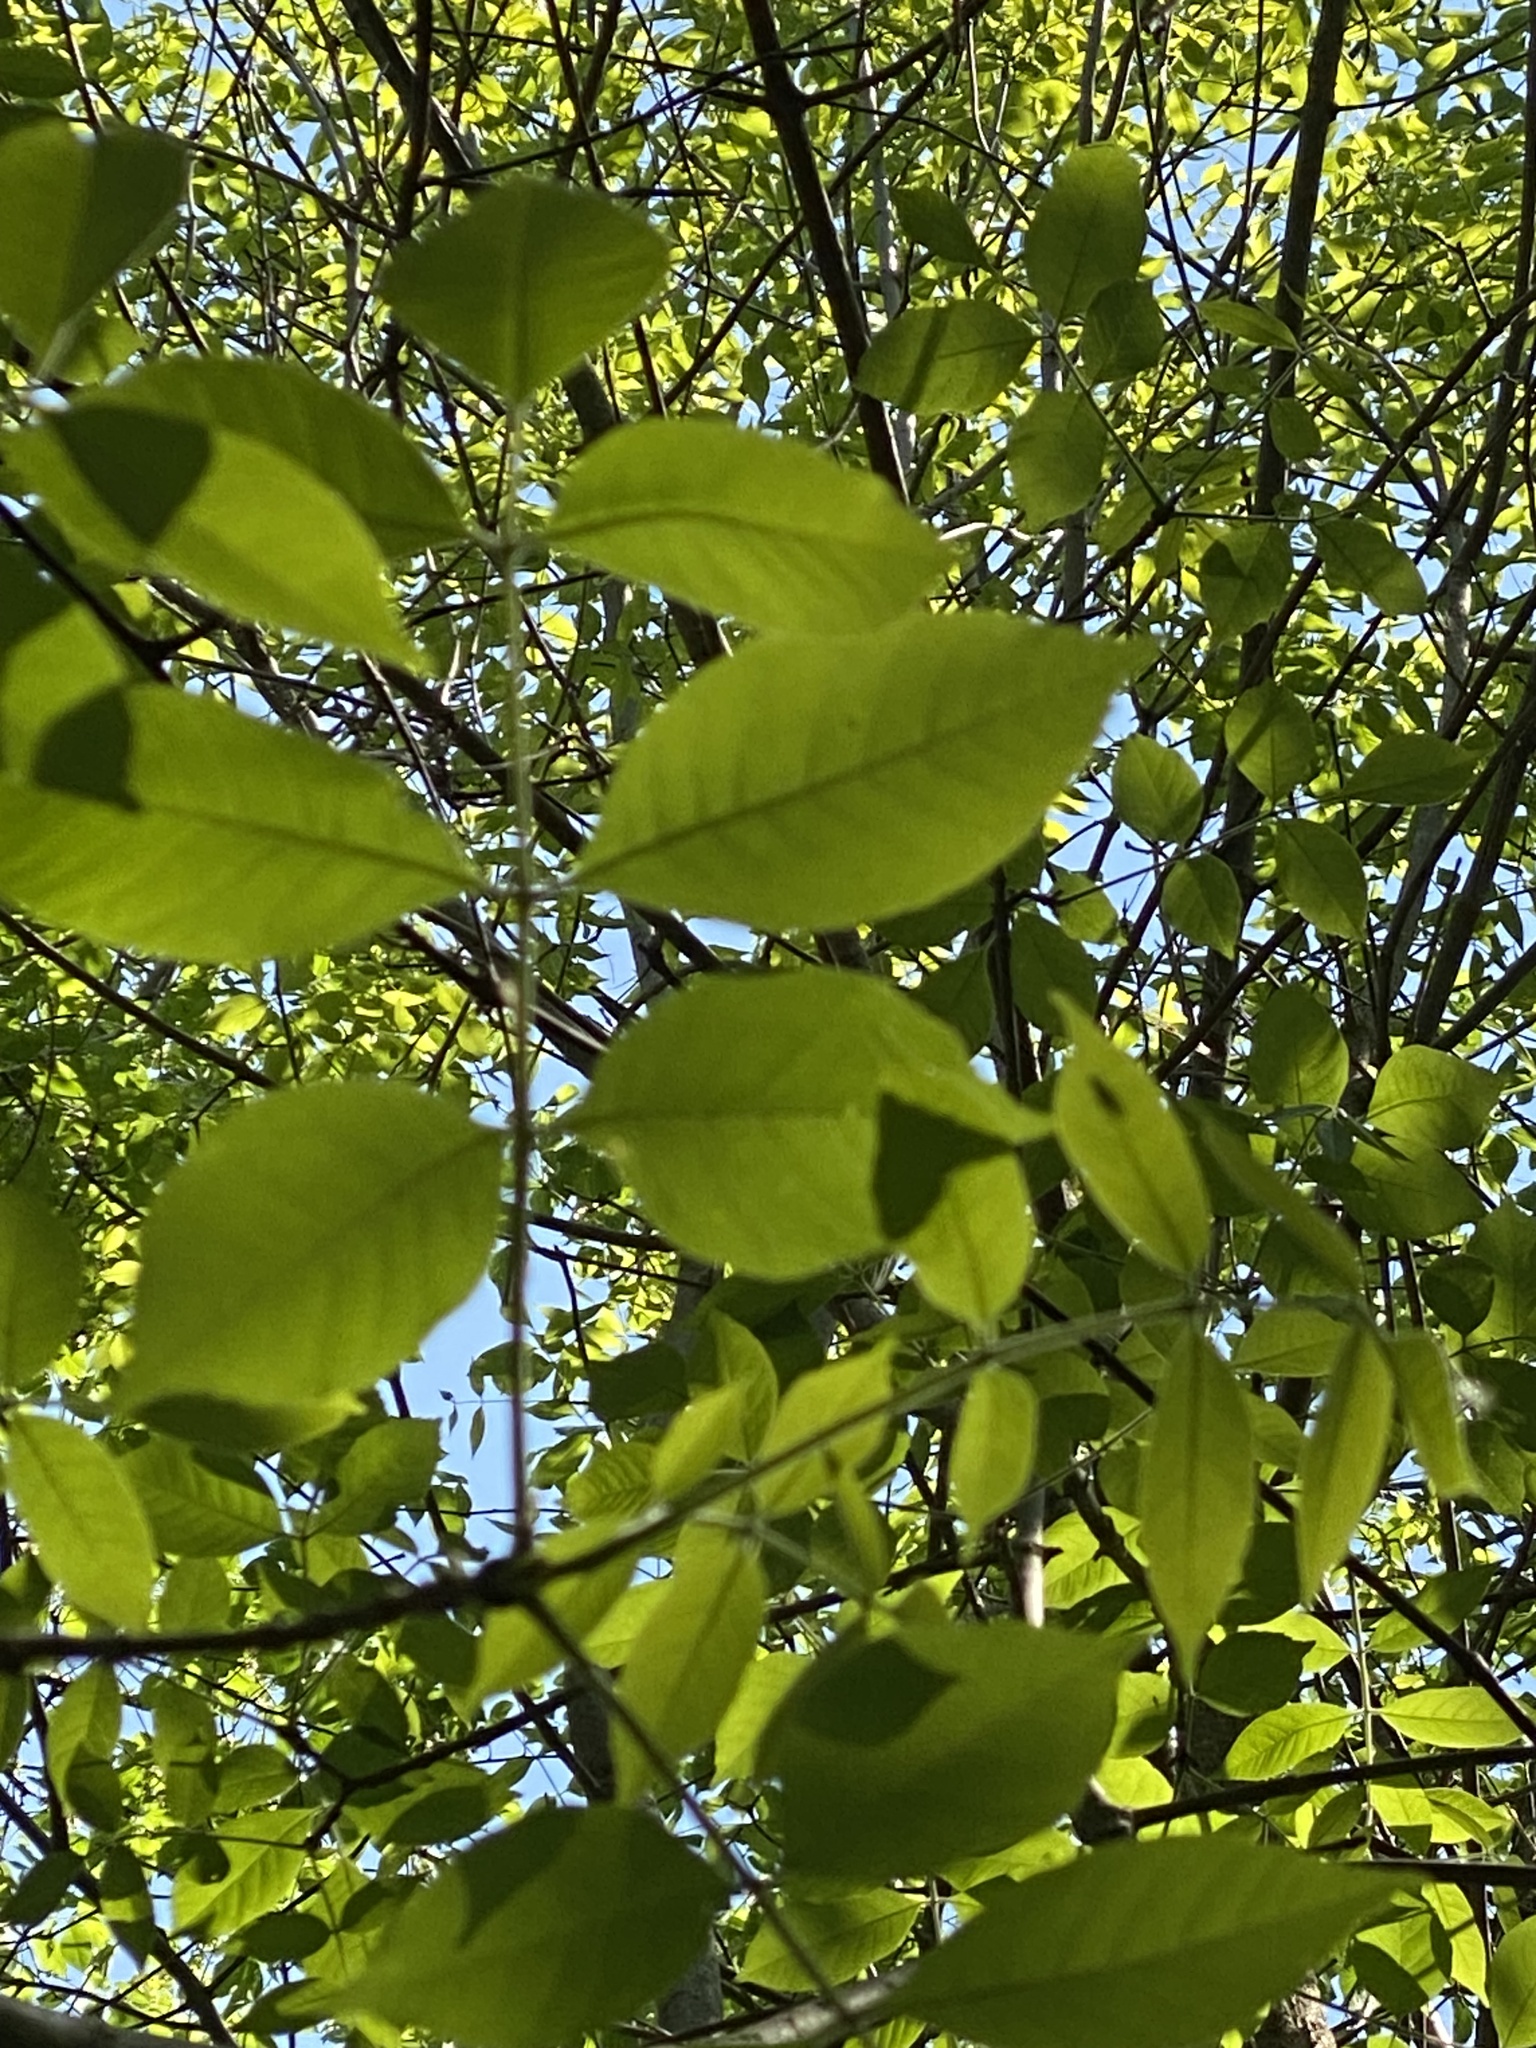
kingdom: Plantae
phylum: Tracheophyta
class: Magnoliopsida
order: Lamiales
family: Oleaceae
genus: Fraxinus
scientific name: Fraxinus pennsylvanica
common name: Green ash
